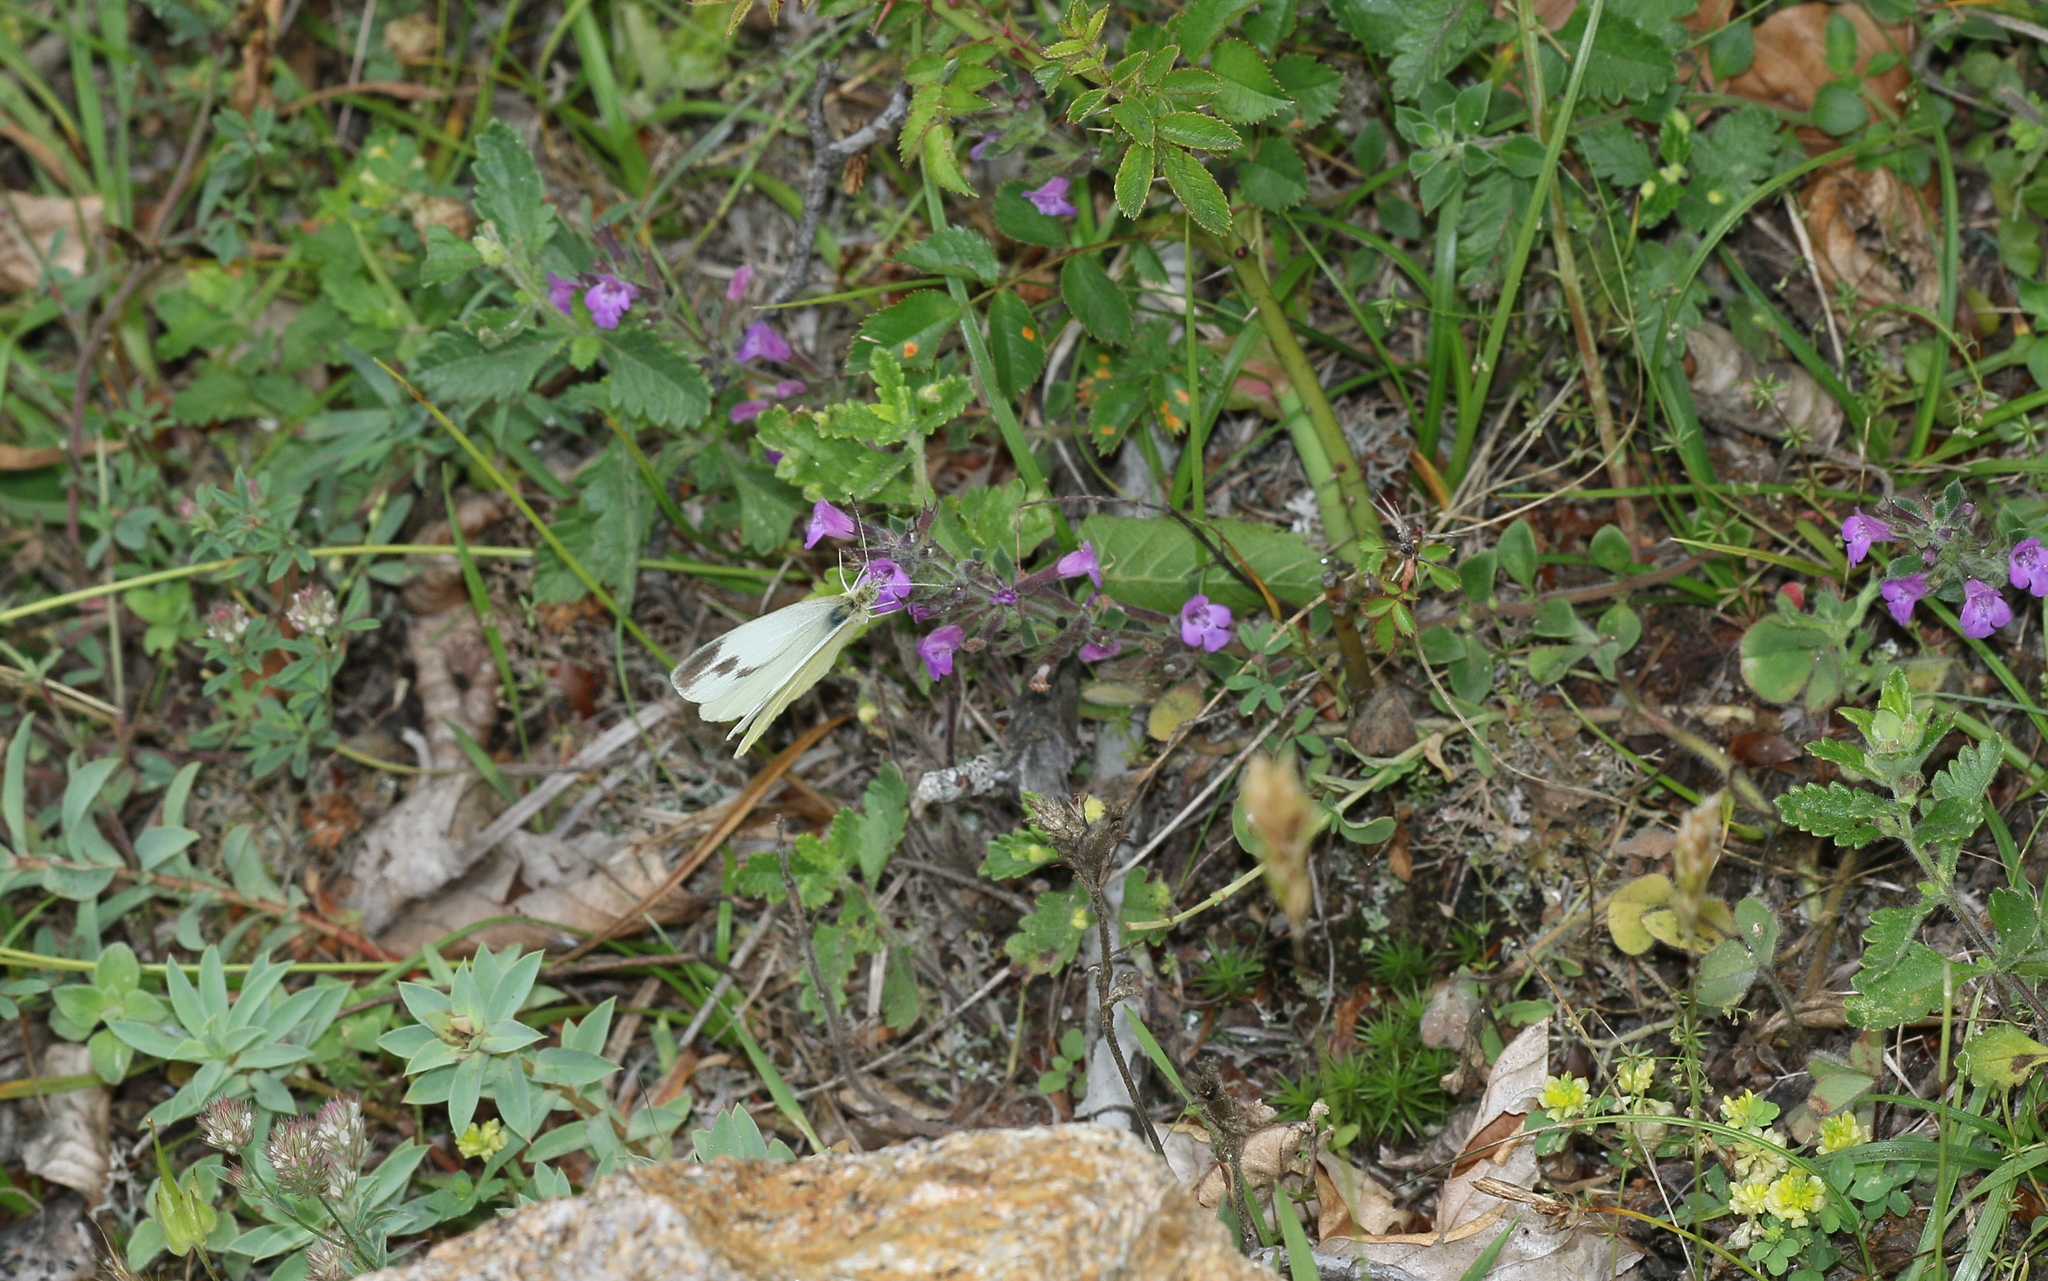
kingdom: Animalia
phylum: Arthropoda
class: Insecta
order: Lepidoptera
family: Pieridae
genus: Pieris
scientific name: Pieris mannii
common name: Southern small white
